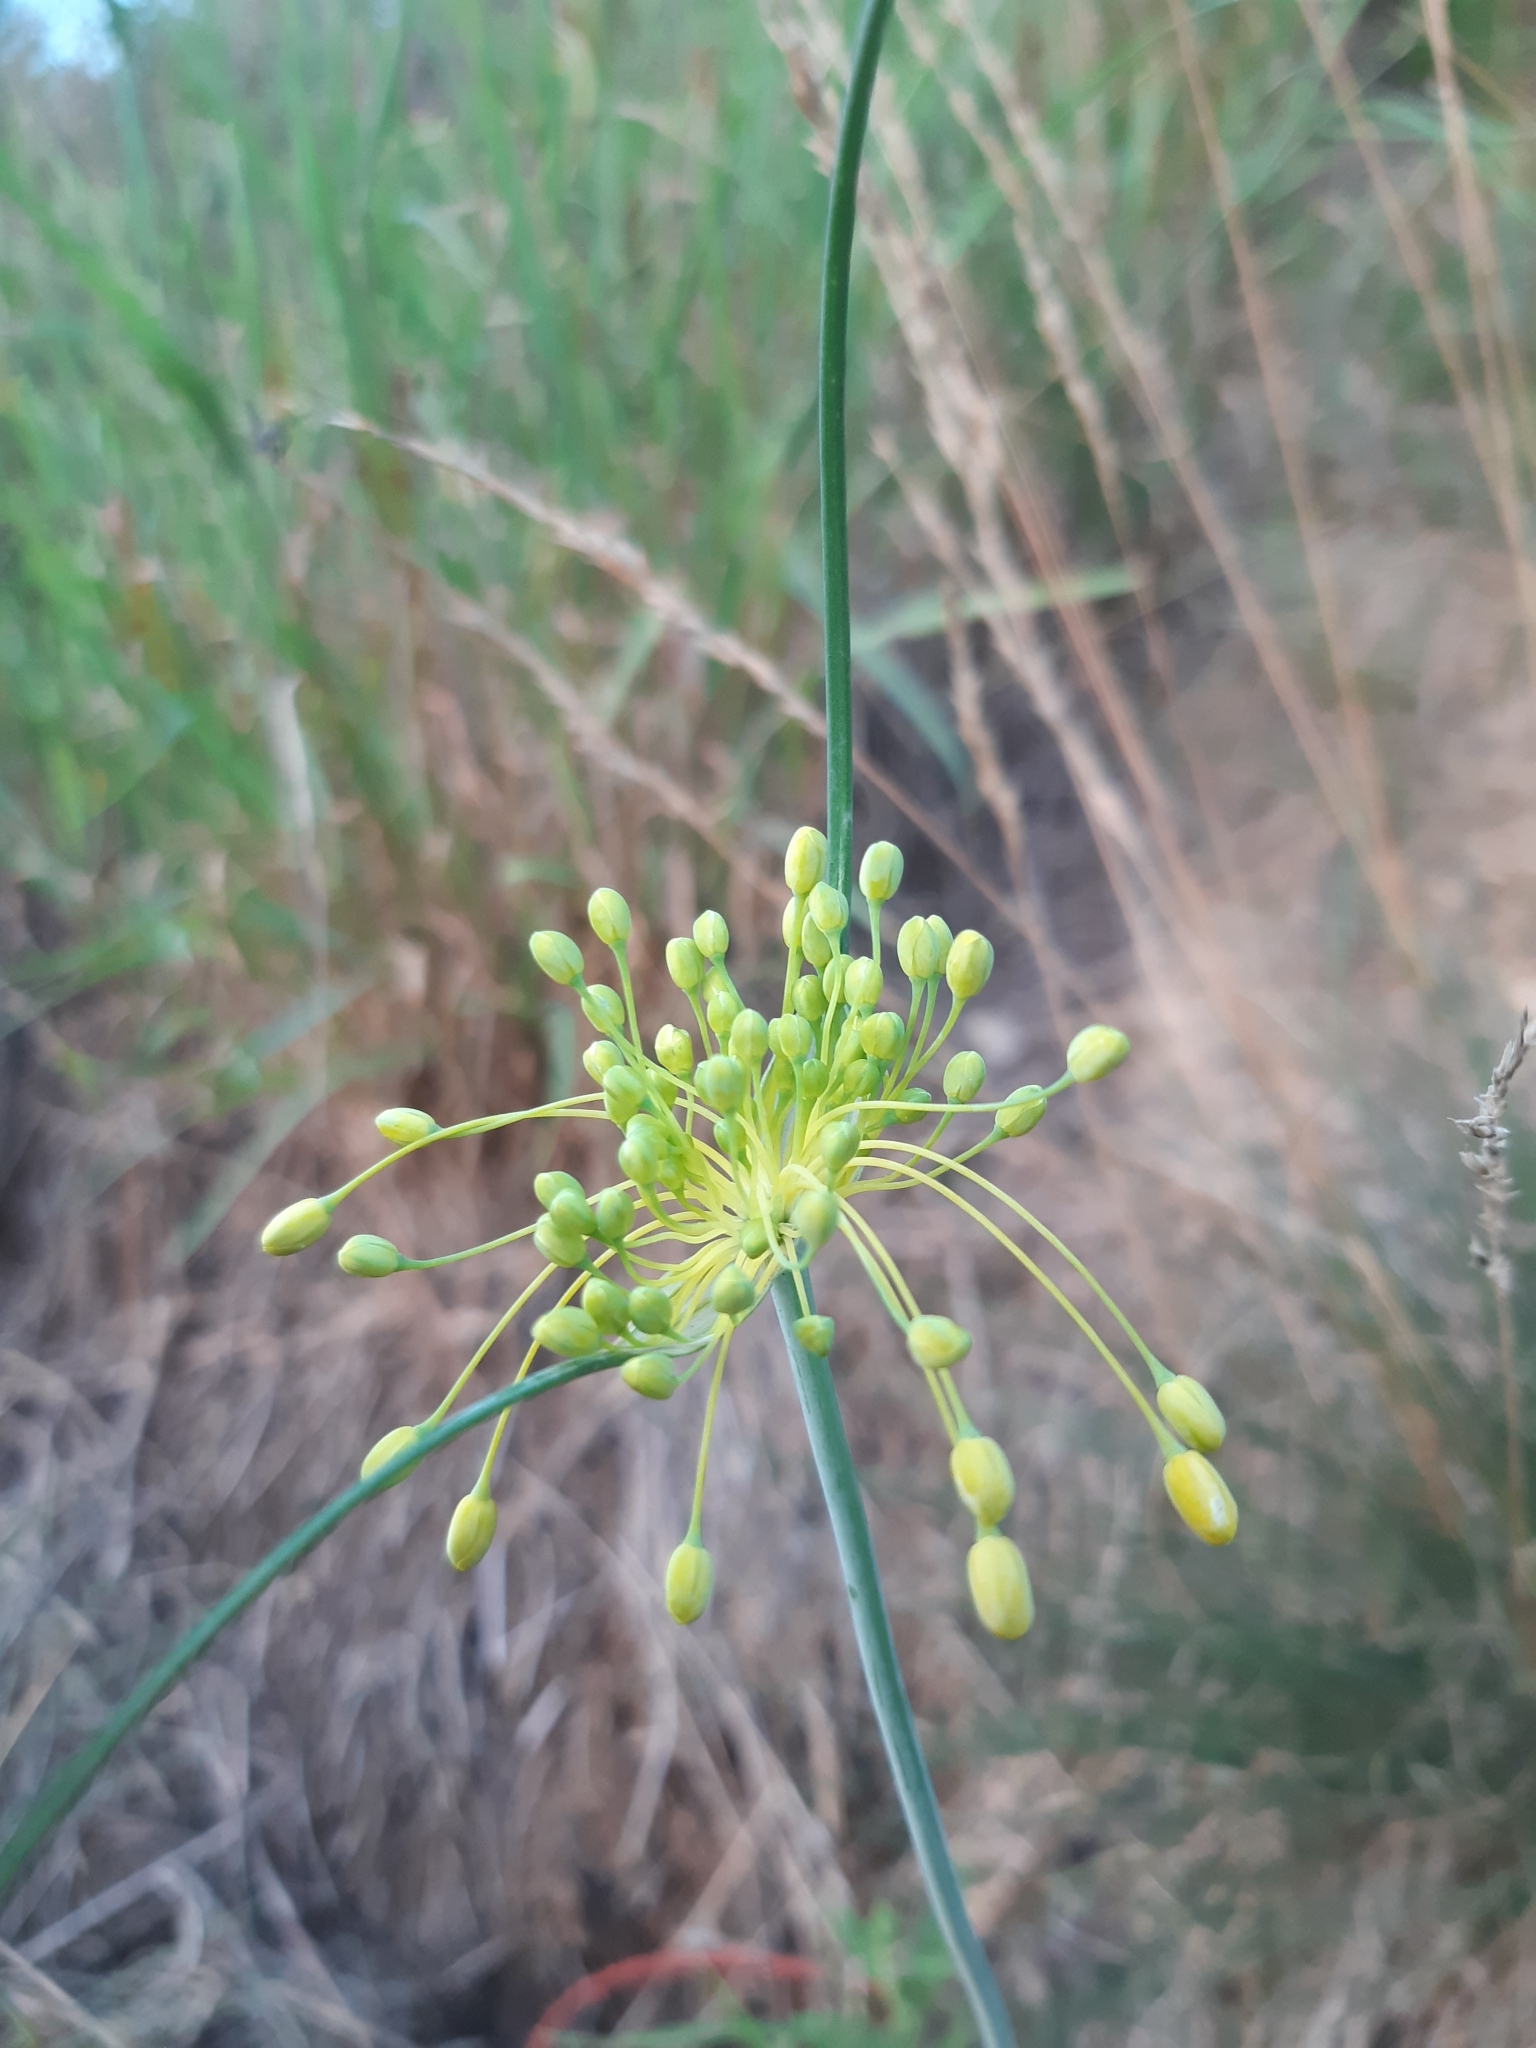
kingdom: Plantae
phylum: Tracheophyta
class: Liliopsida
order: Asparagales
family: Amaryllidaceae
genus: Allium
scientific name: Allium flavum
